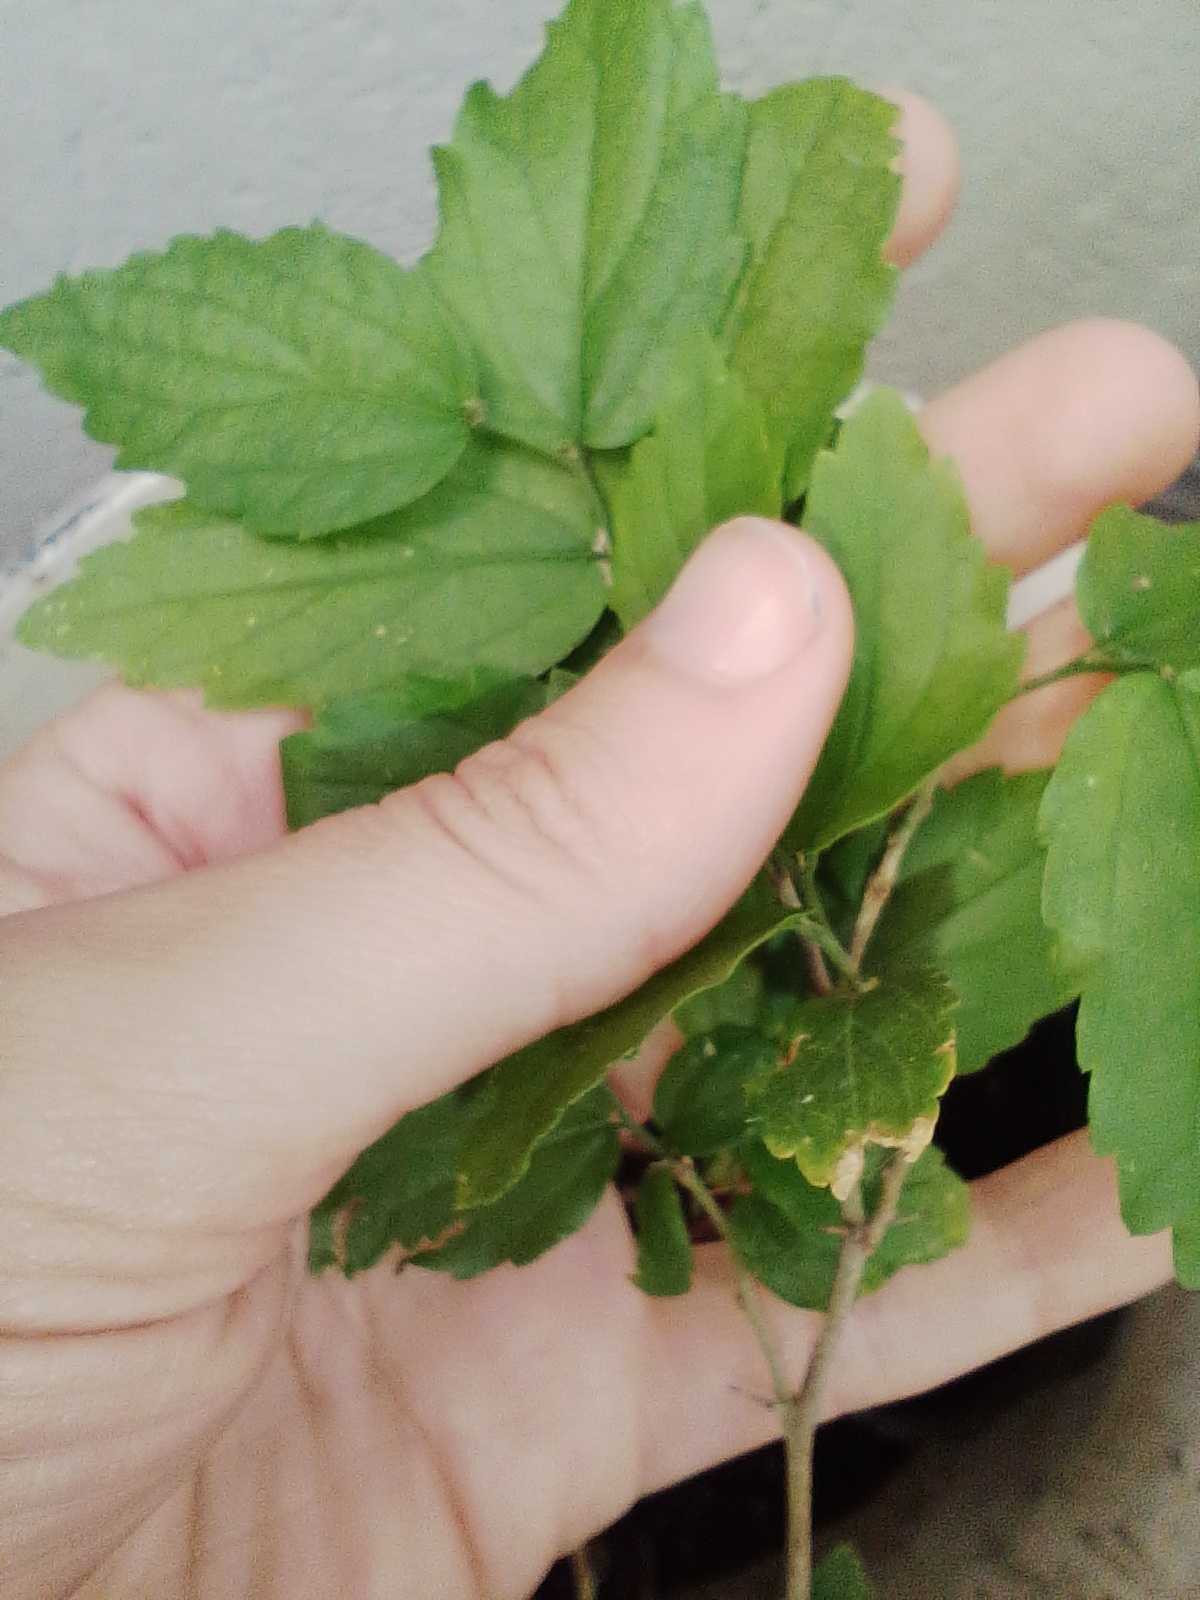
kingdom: Plantae
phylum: Tracheophyta
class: Magnoliopsida
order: Rosales
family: Cannabaceae
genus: Celtis
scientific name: Celtis tala
